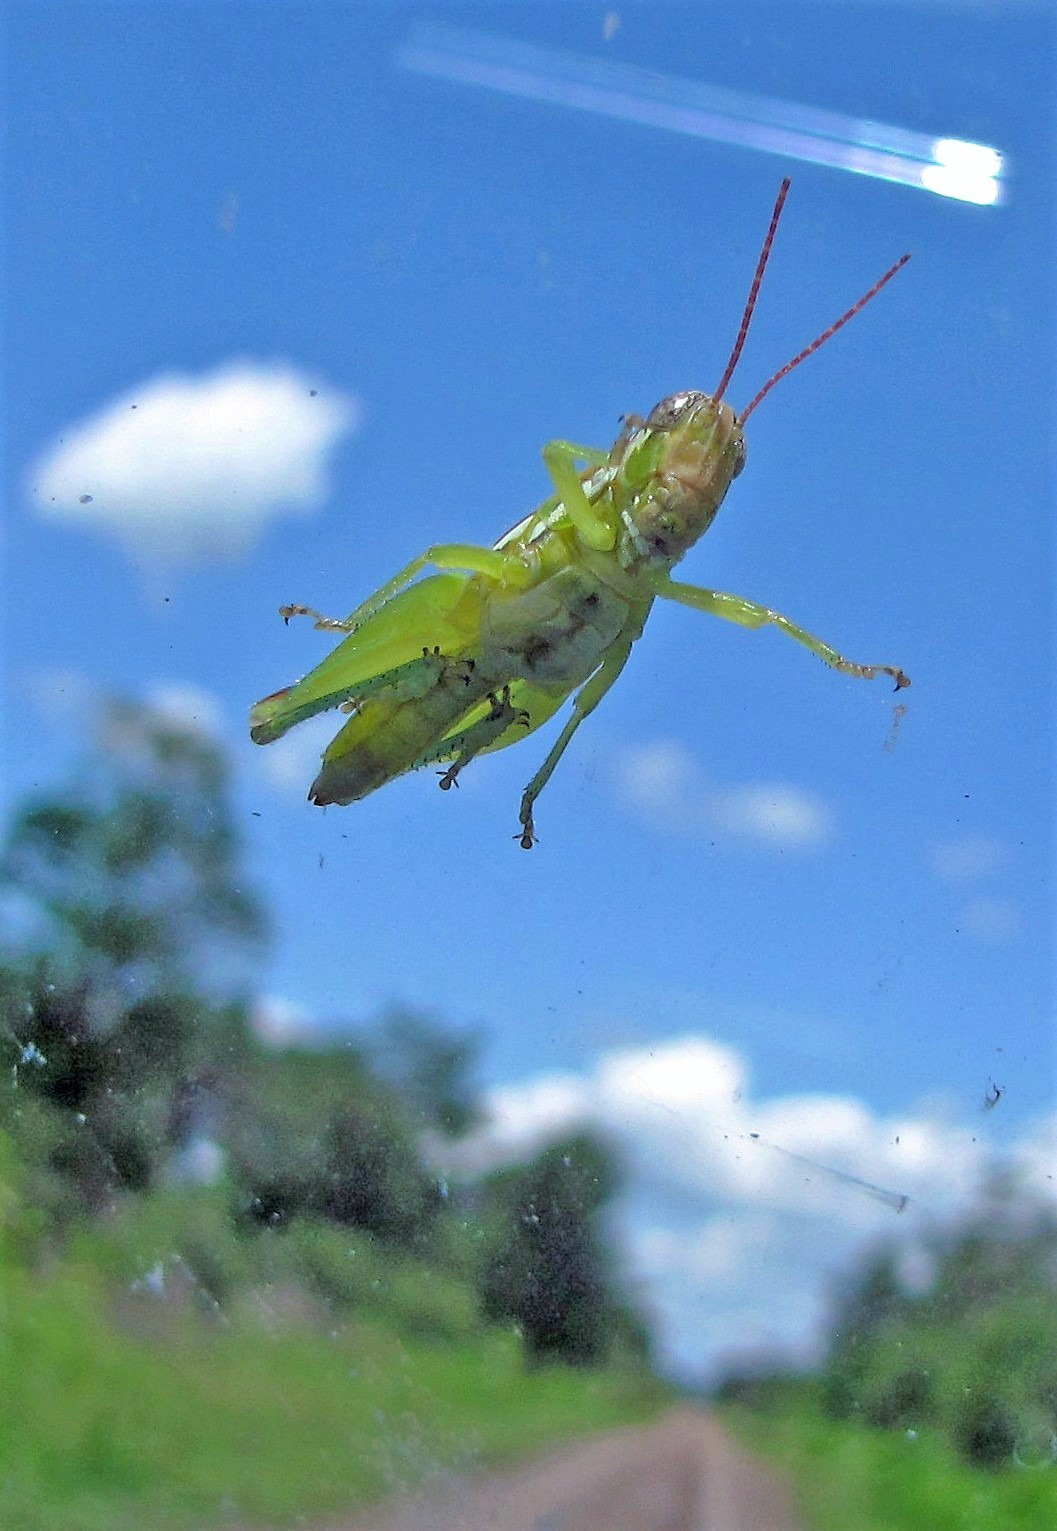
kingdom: Animalia
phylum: Arthropoda
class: Insecta
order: Orthoptera
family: Acrididae
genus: Neopedies
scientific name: Neopedies brunneri
